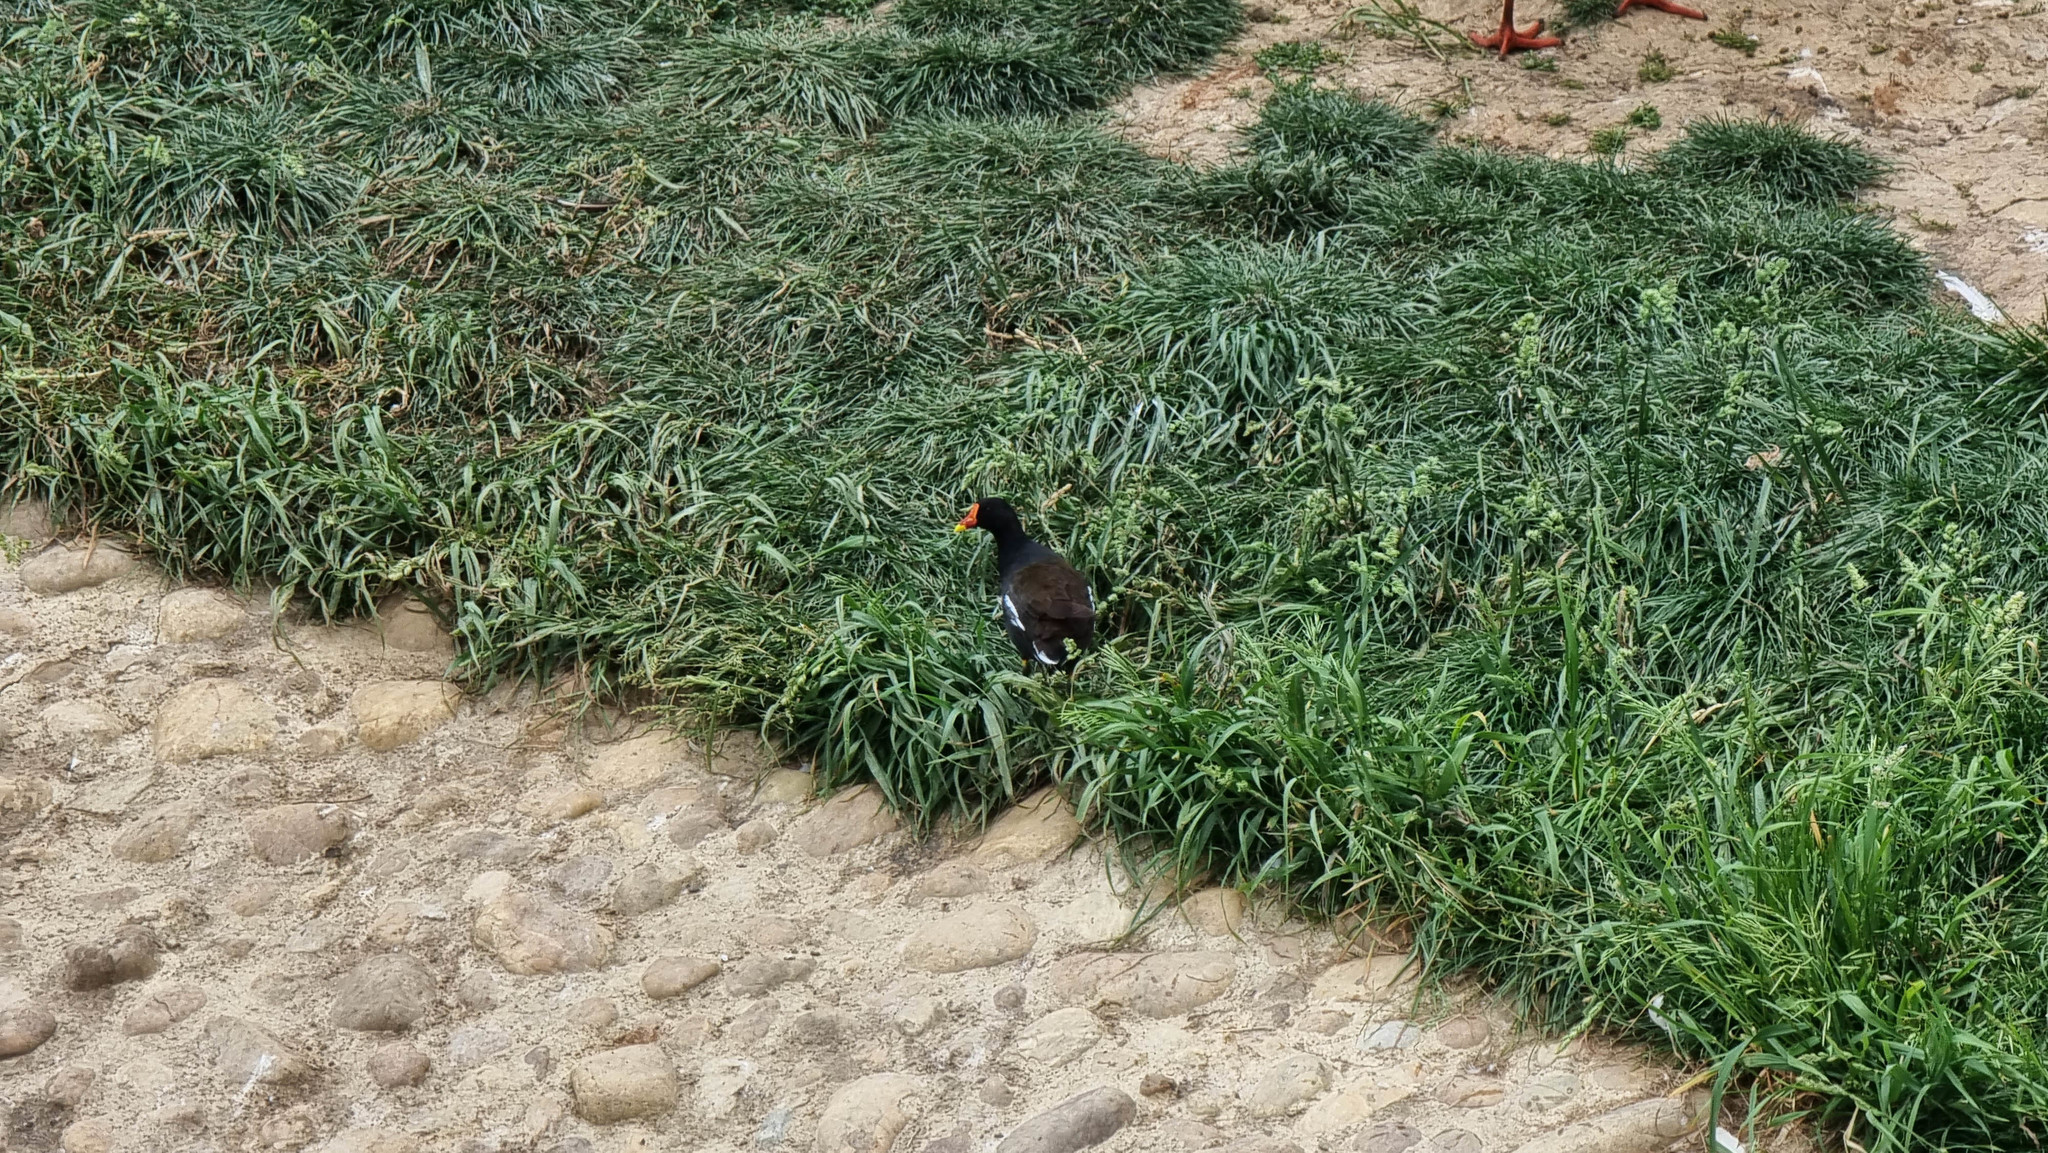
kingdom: Animalia
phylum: Chordata
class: Aves
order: Gruiformes
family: Rallidae
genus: Gallinula
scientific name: Gallinula chloropus
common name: Common moorhen
